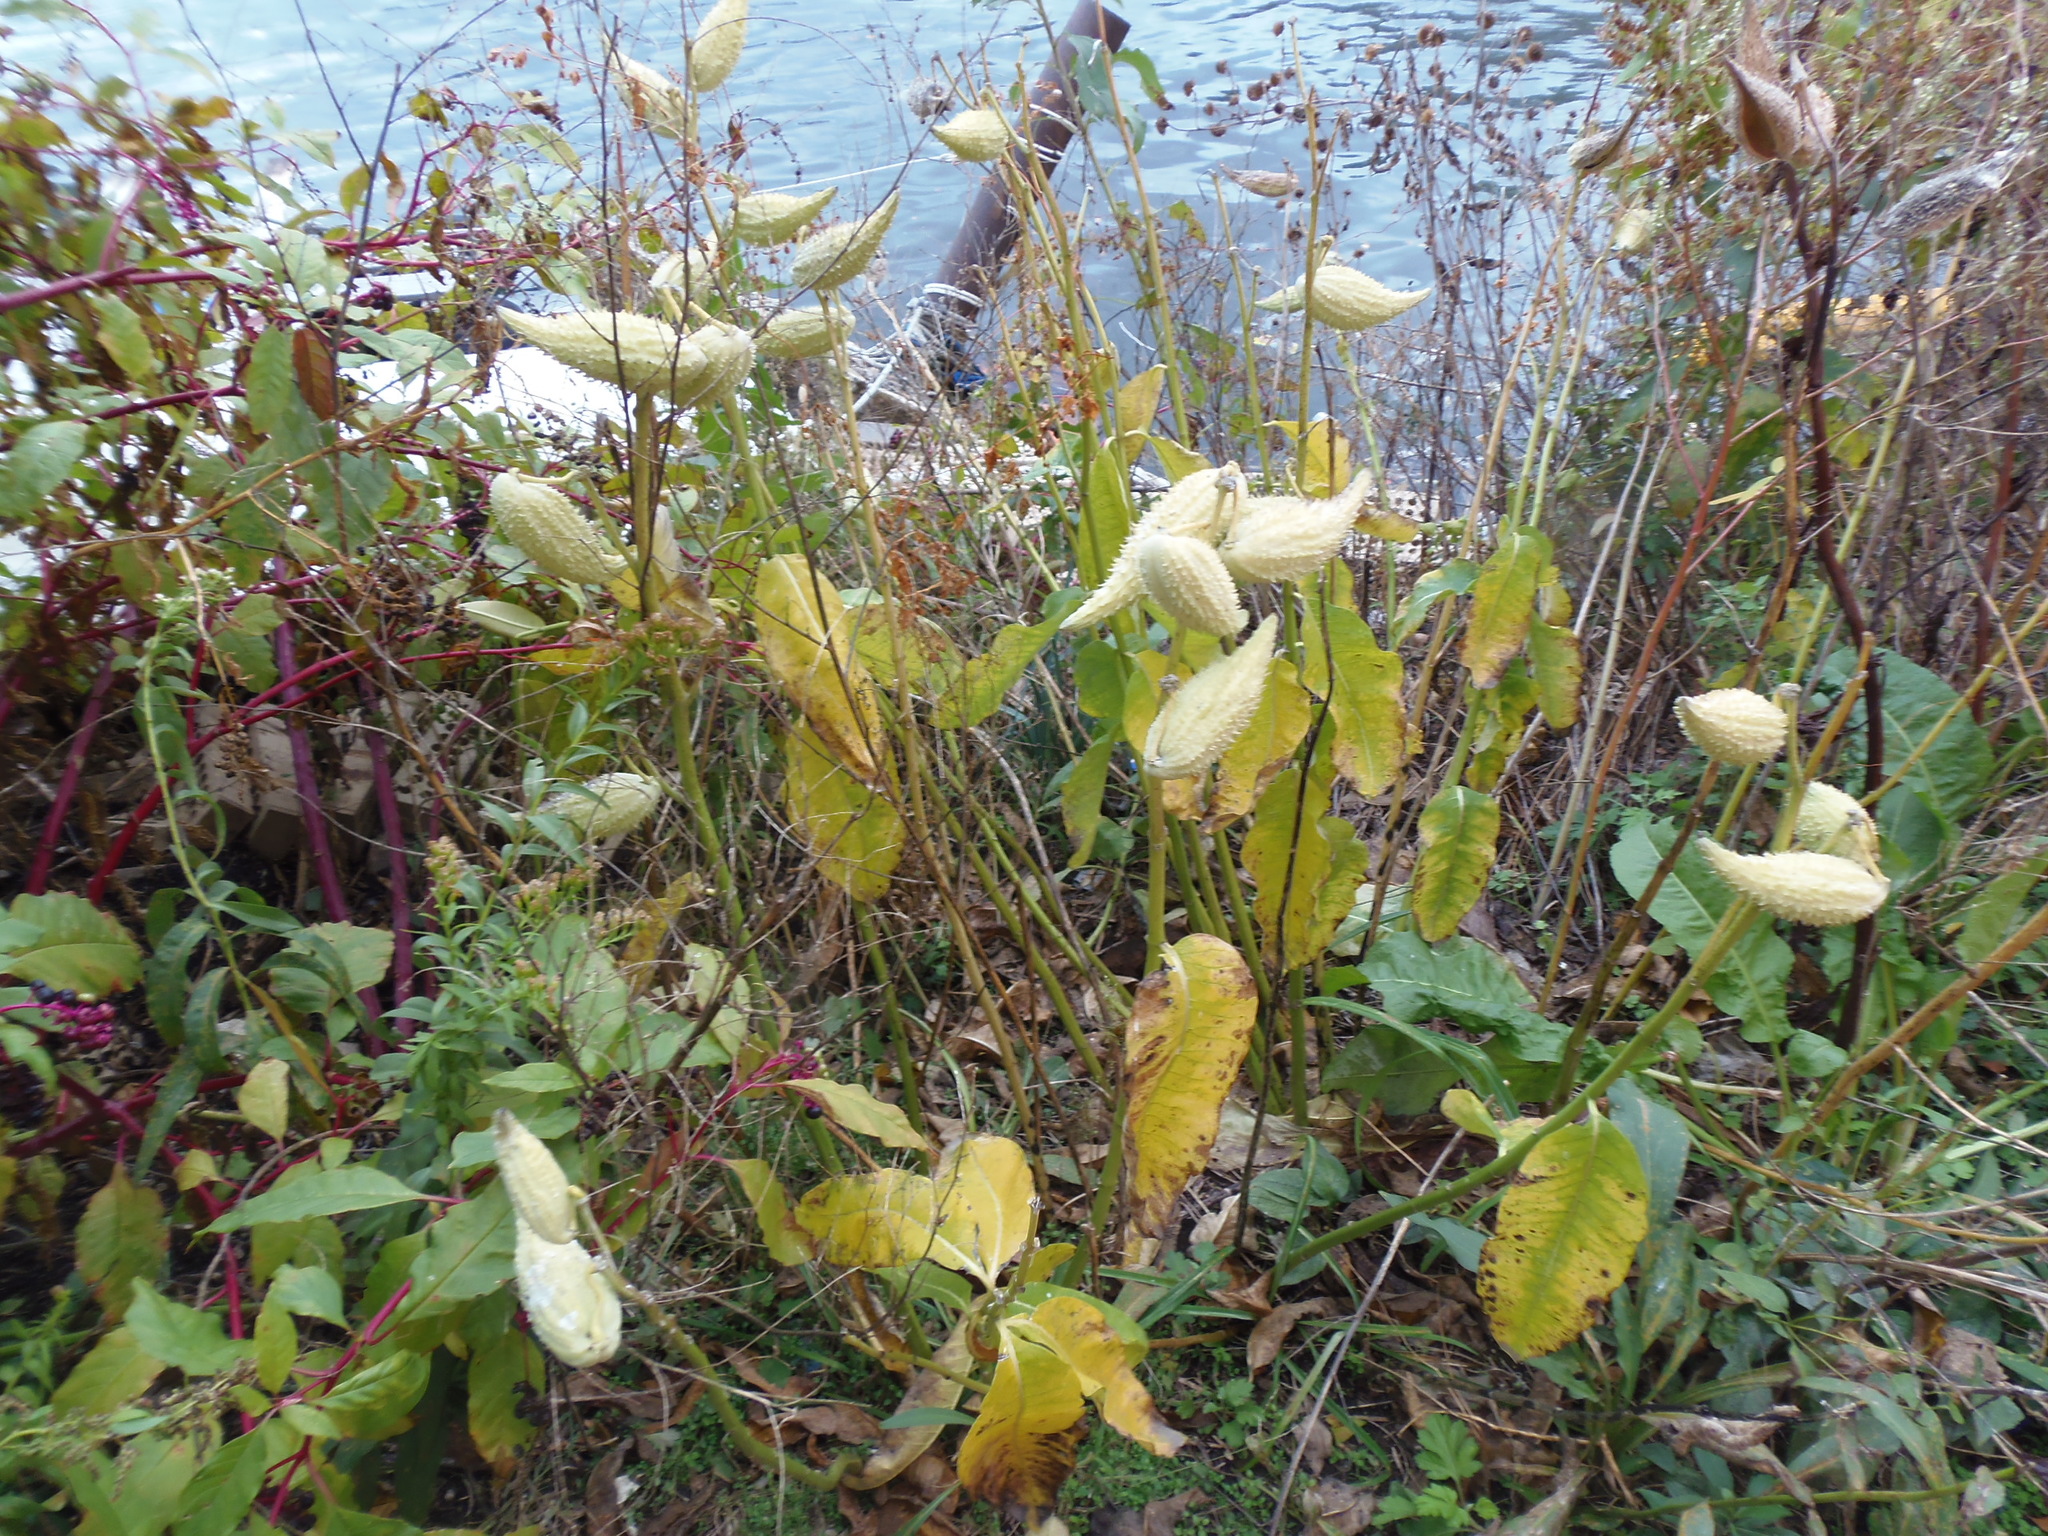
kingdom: Plantae
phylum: Tracheophyta
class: Magnoliopsida
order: Gentianales
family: Apocynaceae
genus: Asclepias
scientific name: Asclepias syriaca
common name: Common milkweed
